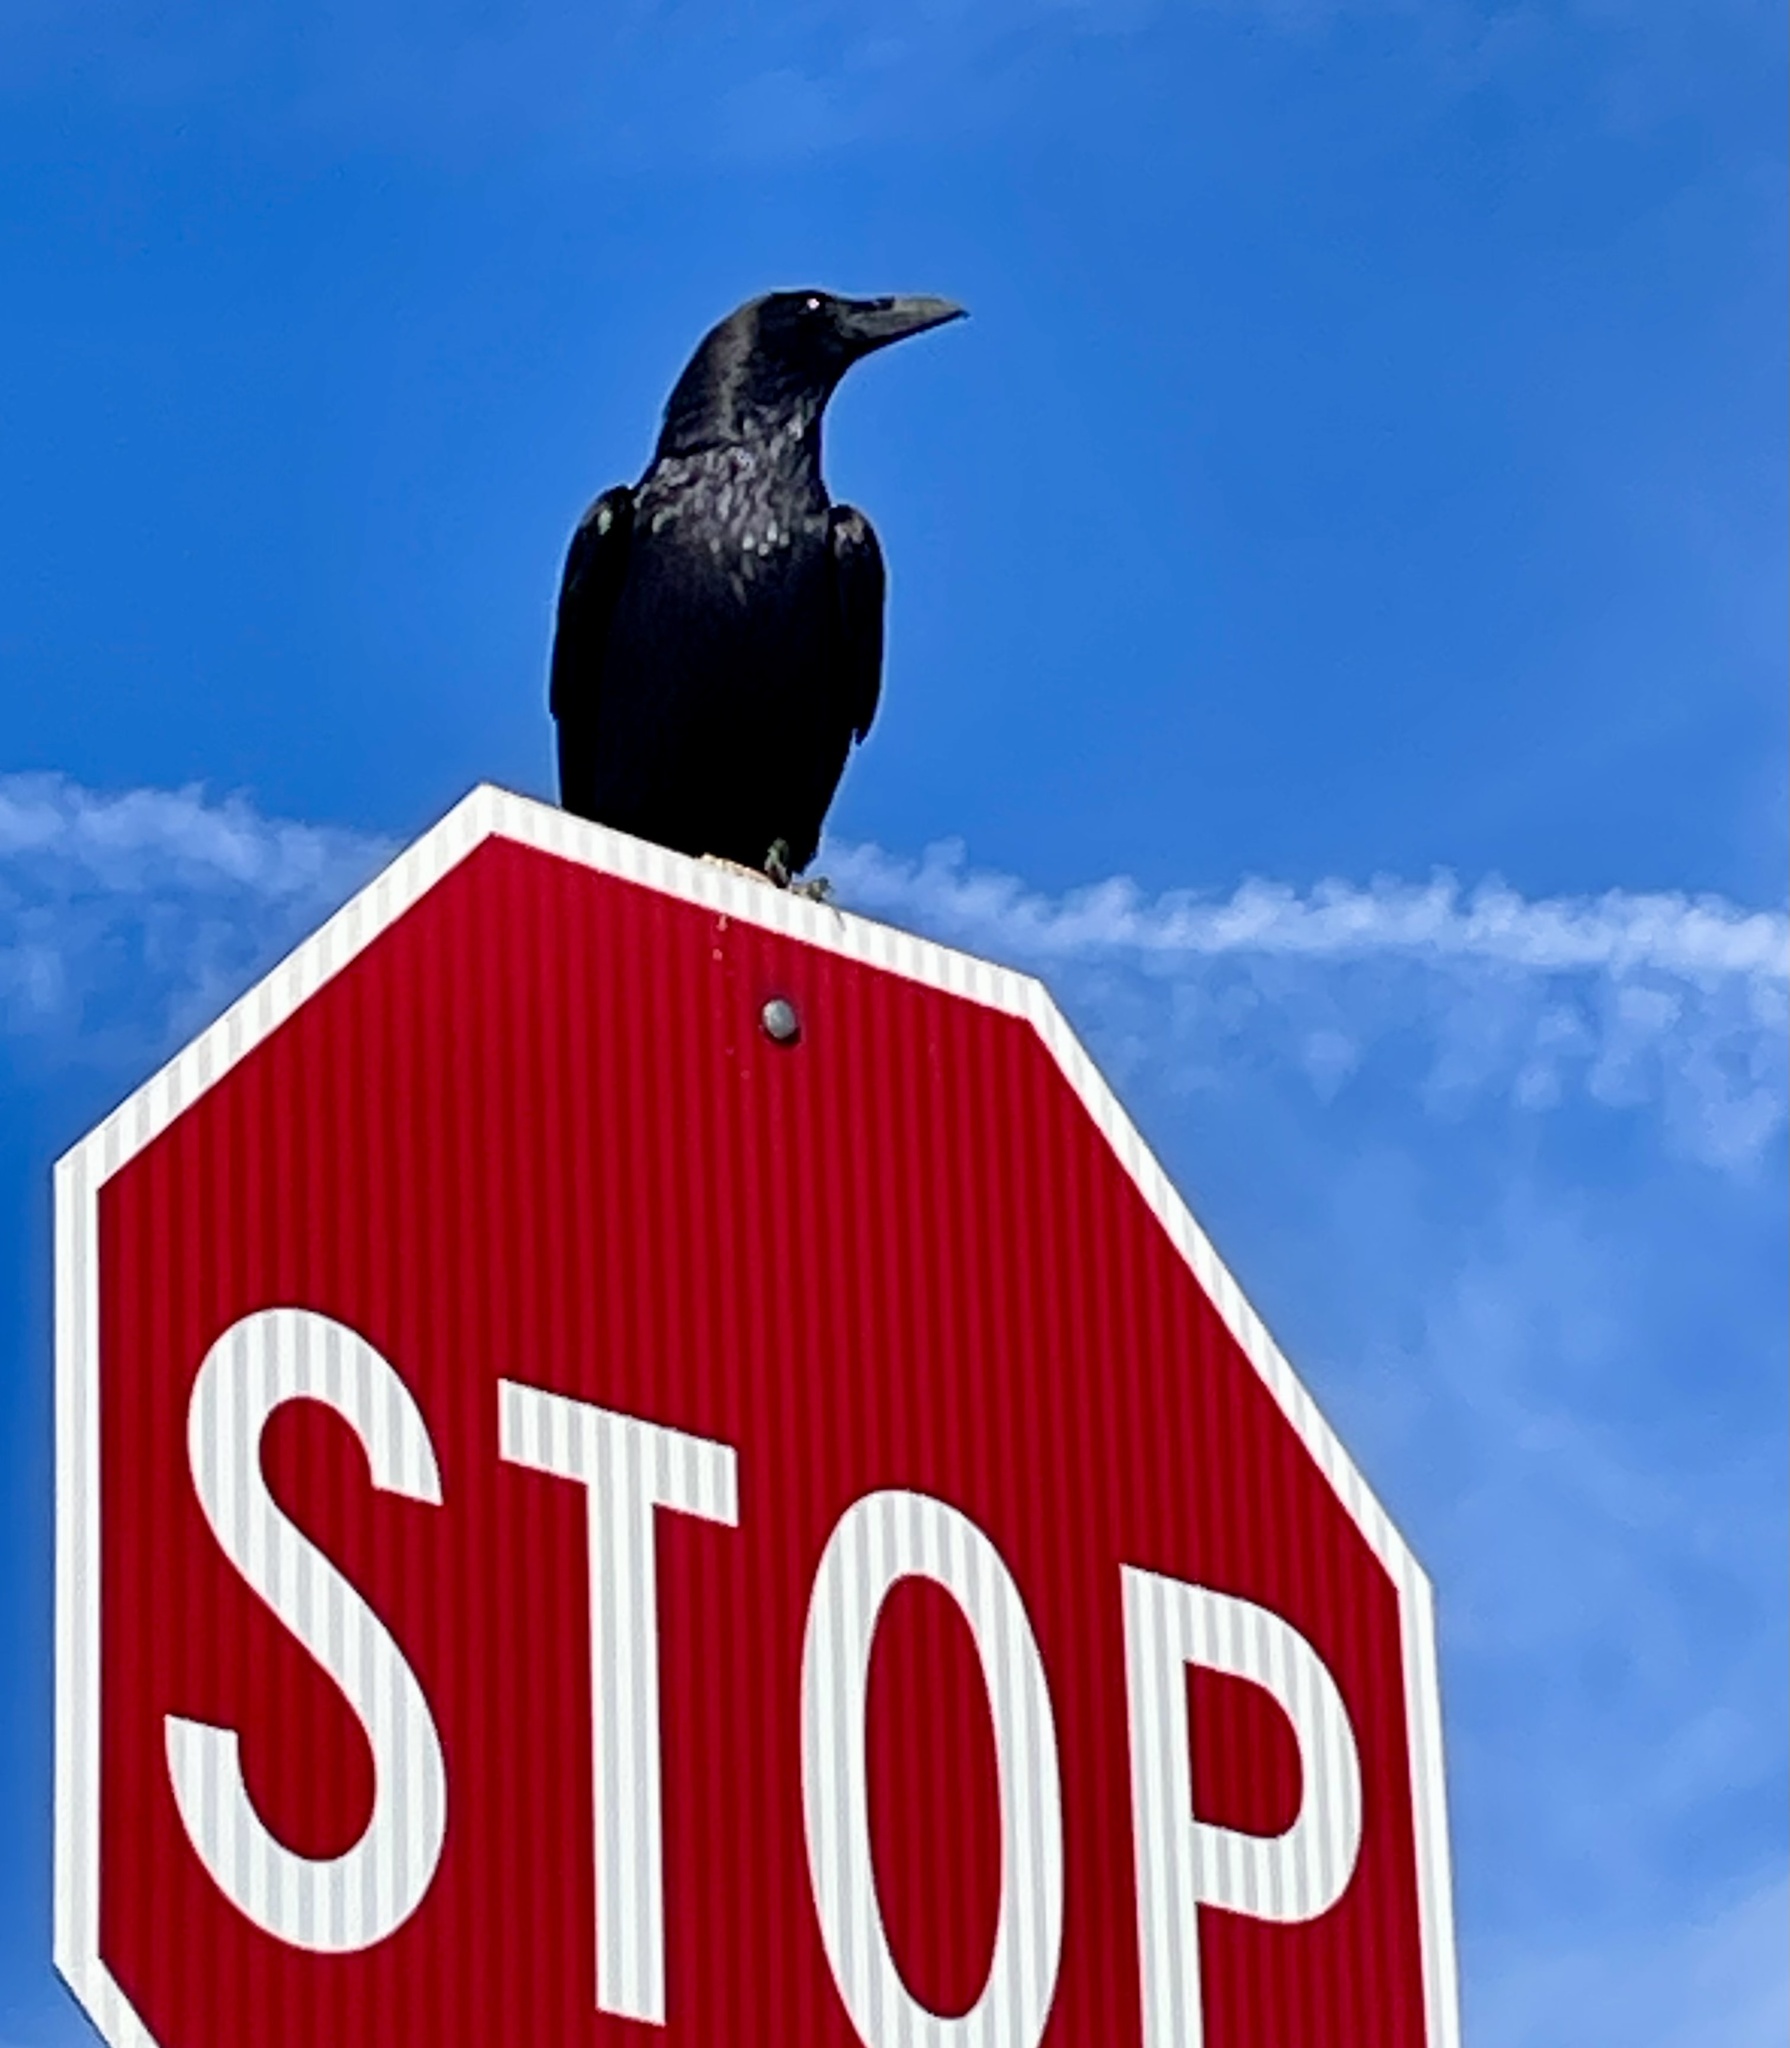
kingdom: Animalia
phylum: Chordata
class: Aves
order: Passeriformes
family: Corvidae
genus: Corvus
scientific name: Corvus corax
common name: Common raven
